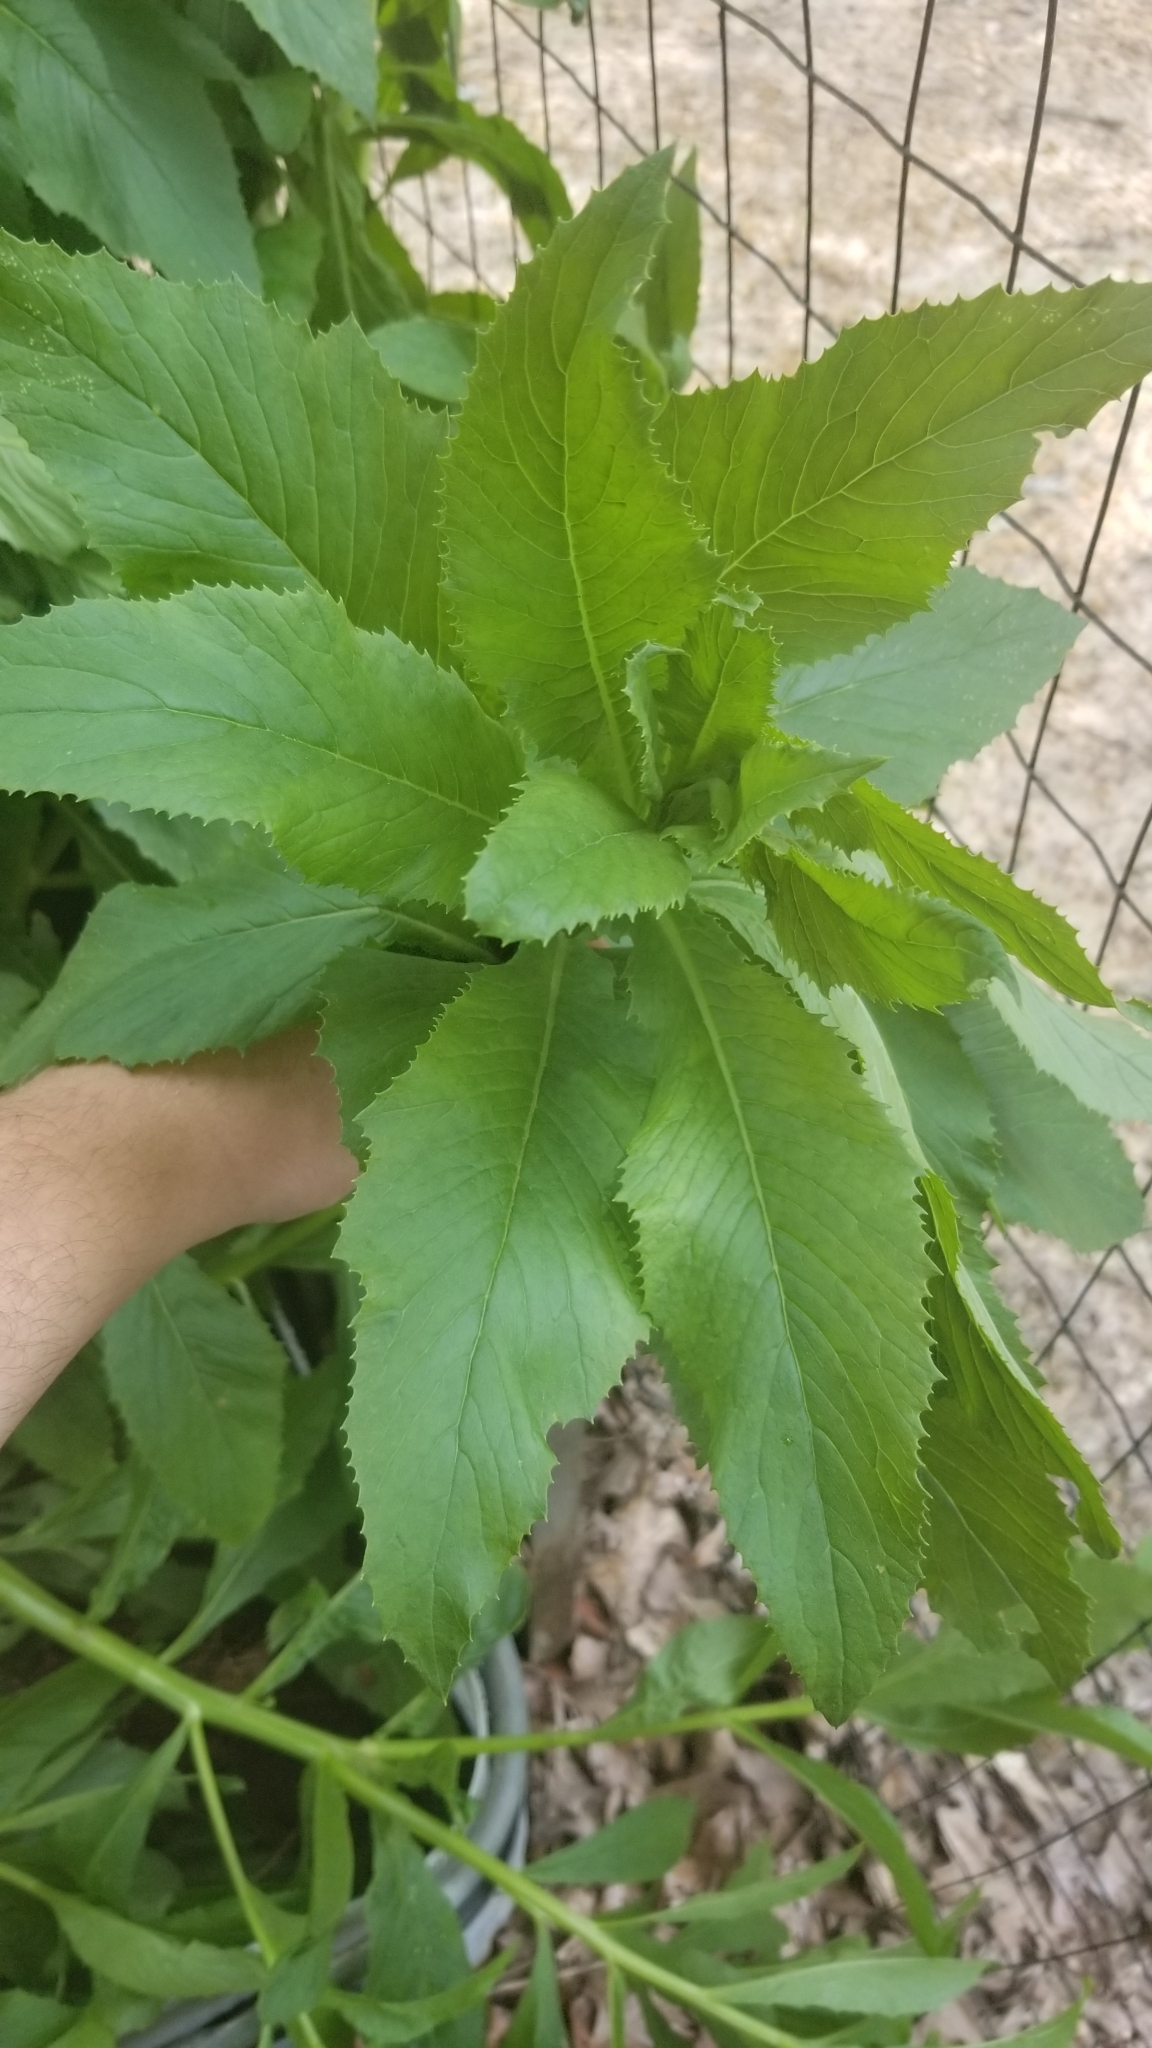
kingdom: Plantae
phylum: Tracheophyta
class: Magnoliopsida
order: Asterales
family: Asteraceae
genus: Erechtites
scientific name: Erechtites hieraciifolius
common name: American burnweed
